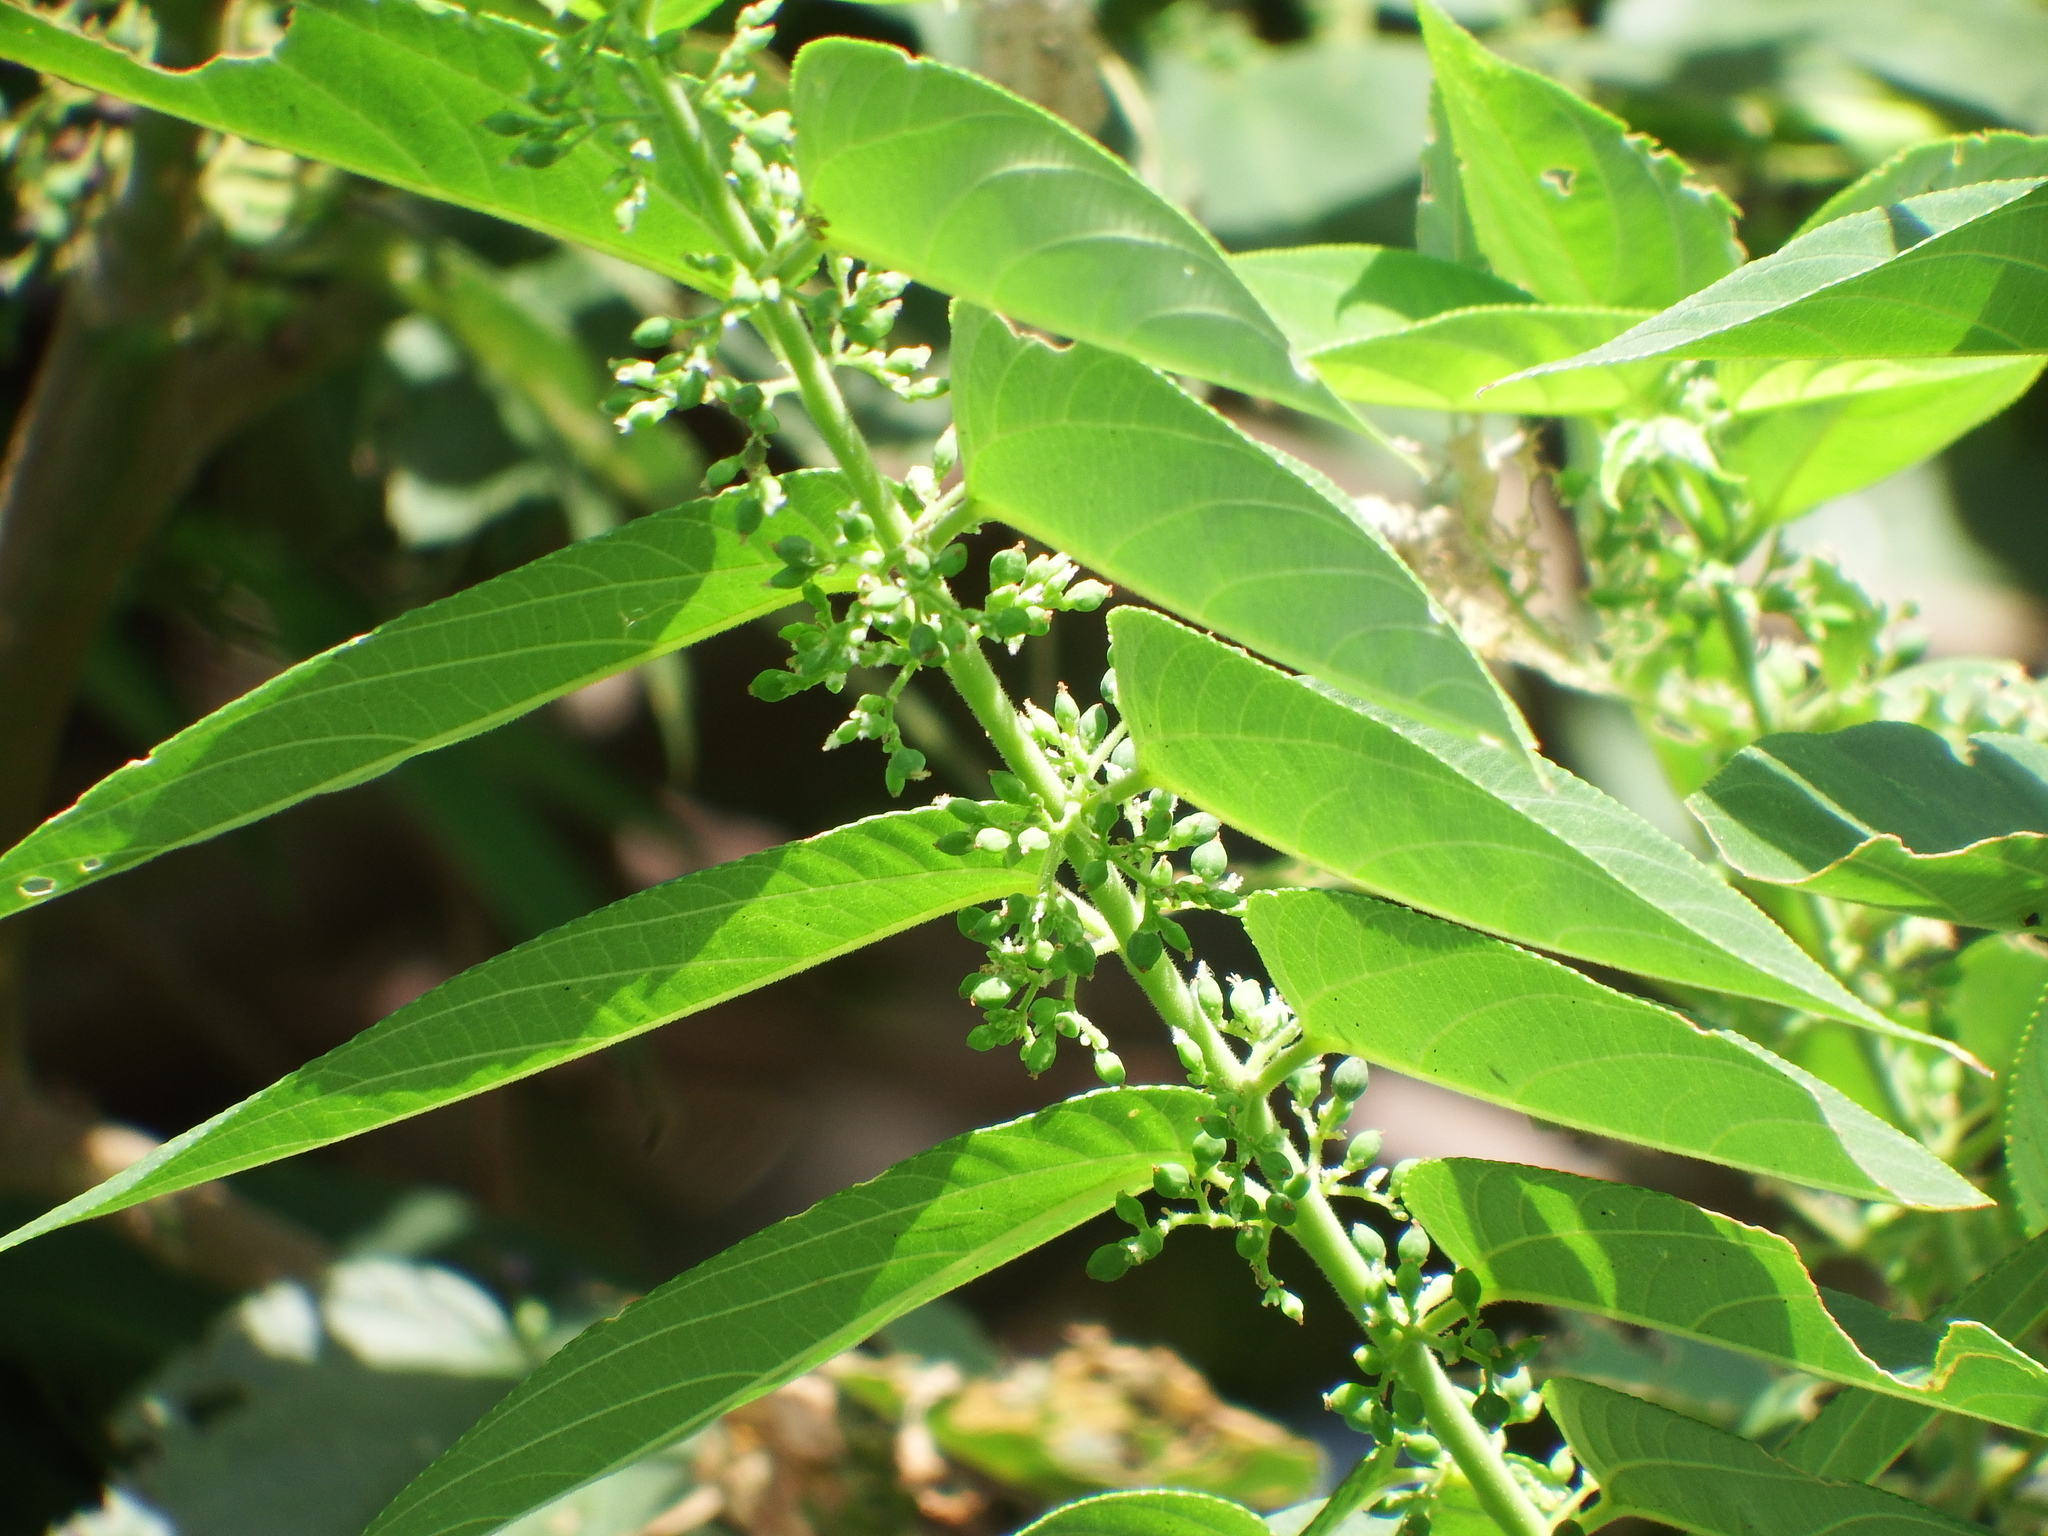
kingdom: Plantae
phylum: Tracheophyta
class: Magnoliopsida
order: Rosales
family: Cannabaceae
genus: Trema
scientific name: Trema orientale
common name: Indian charcoal tree
